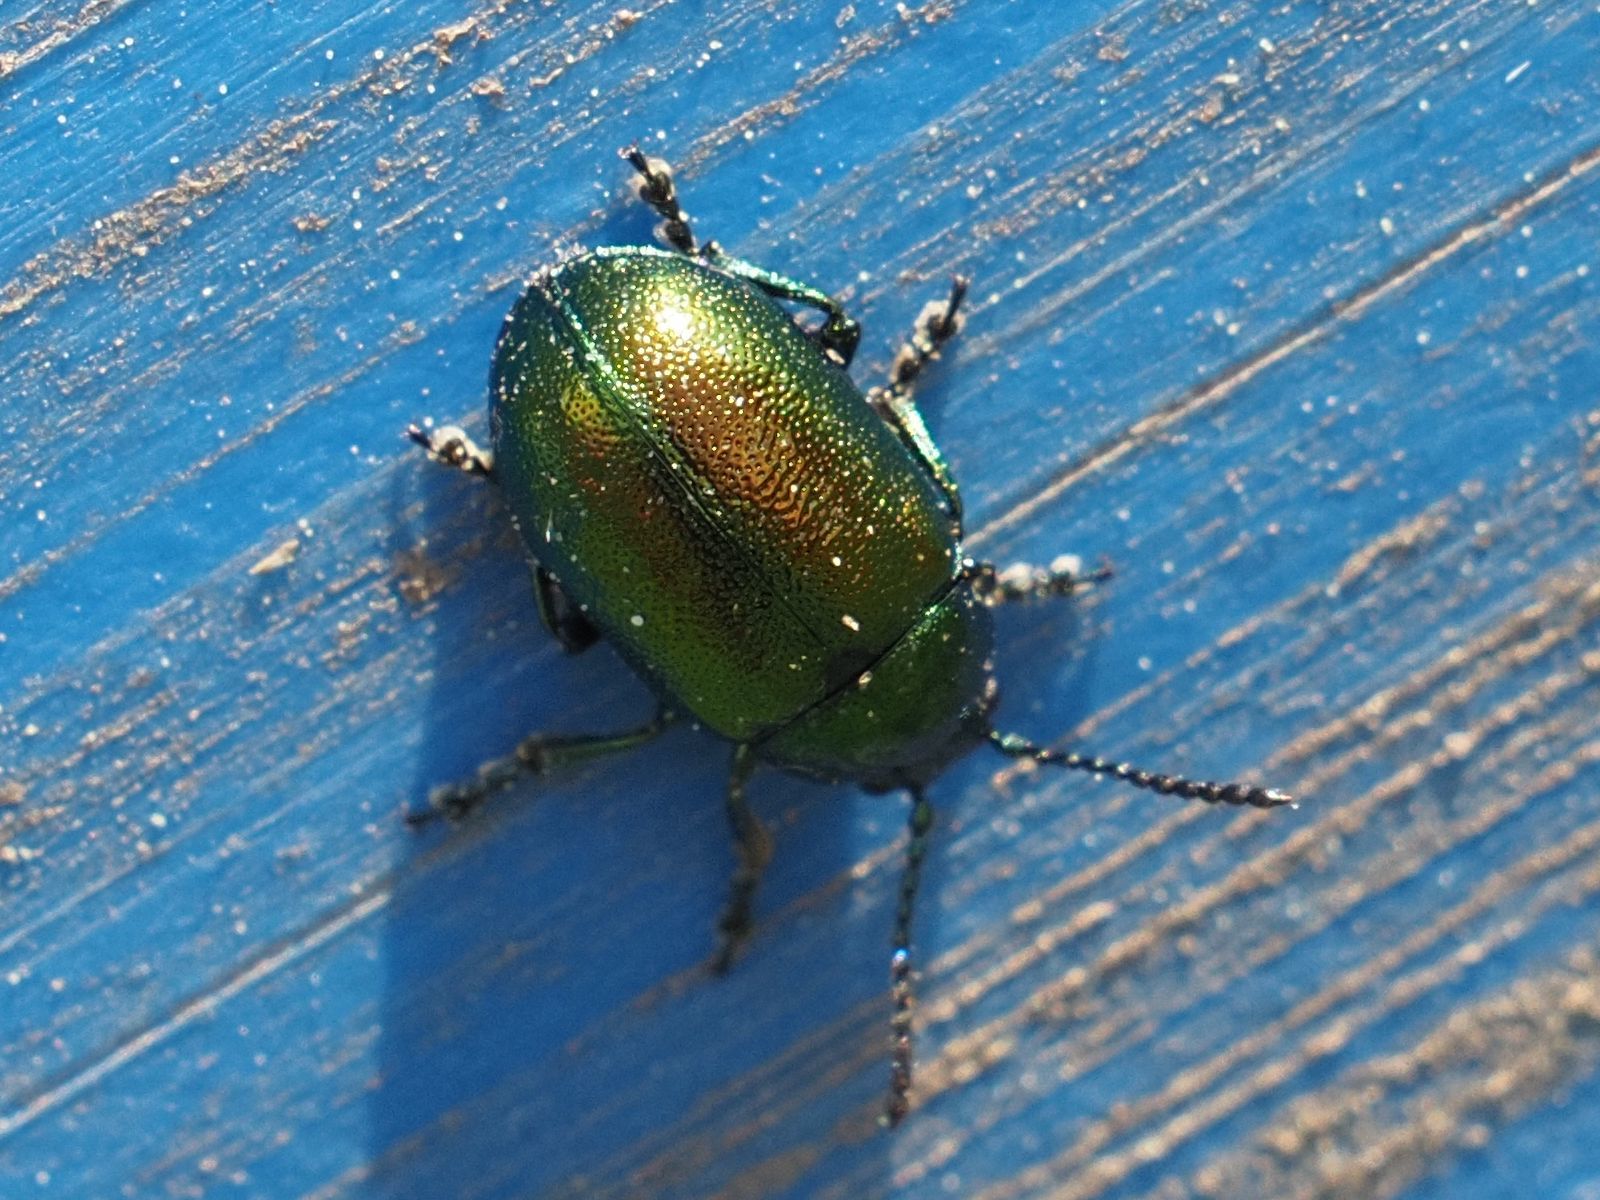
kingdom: Animalia
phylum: Arthropoda
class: Insecta
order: Coleoptera
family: Chrysomelidae
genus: Gastrophysa
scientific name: Gastrophysa viridula
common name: Green dock beetle
